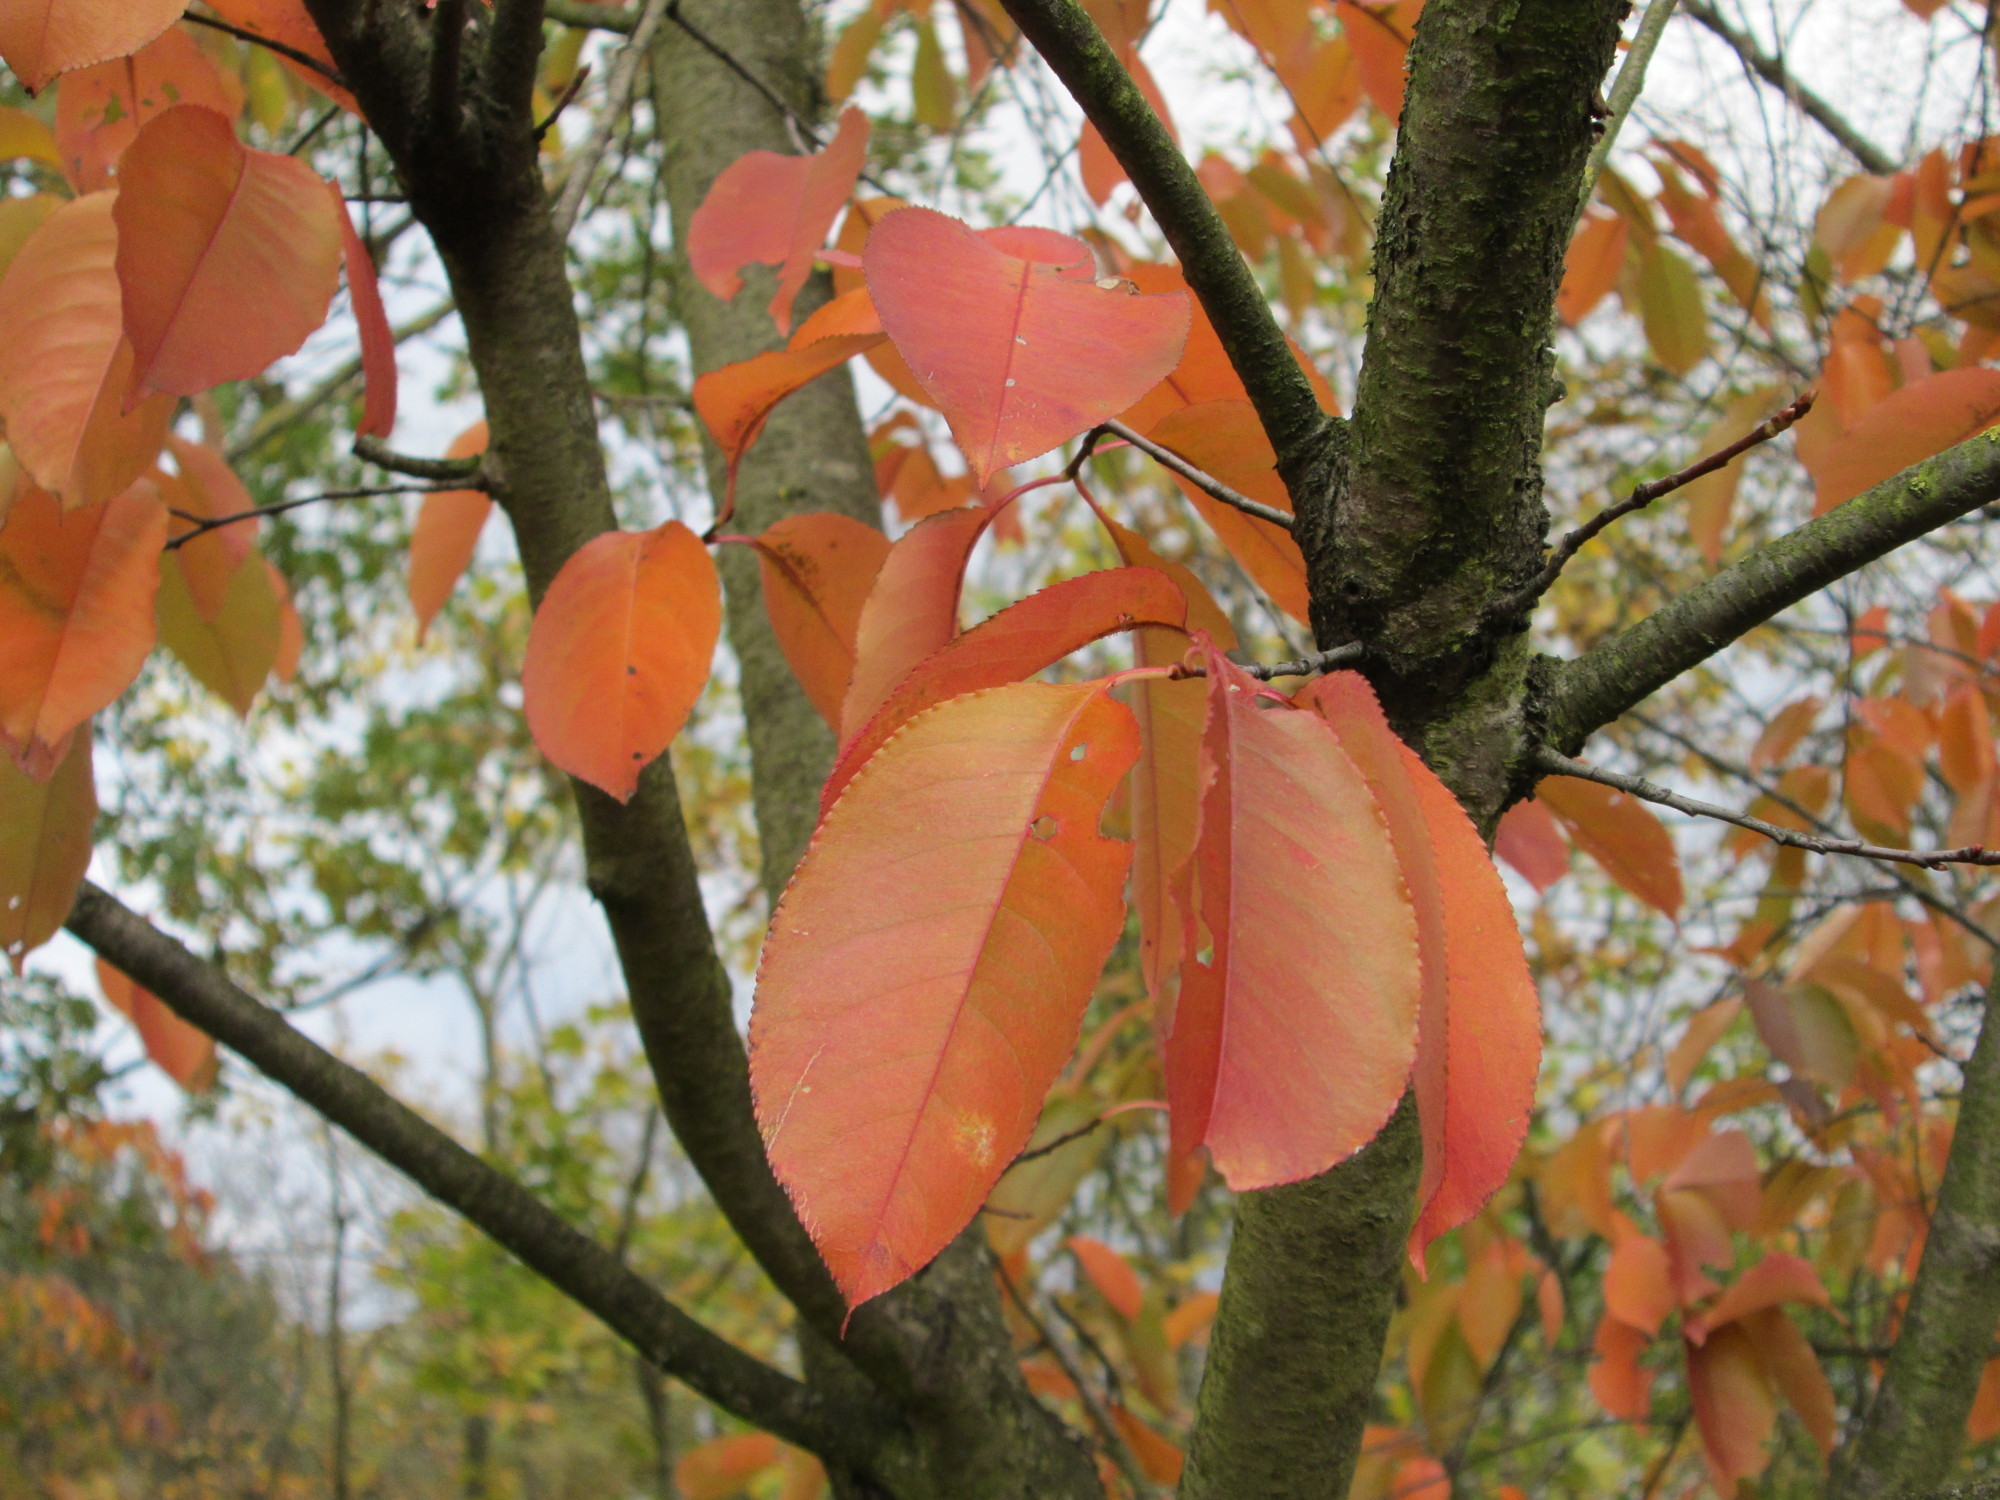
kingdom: Plantae
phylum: Tracheophyta
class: Magnoliopsida
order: Rosales
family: Rosaceae
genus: Prunus
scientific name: Prunus serotina
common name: Black cherry
